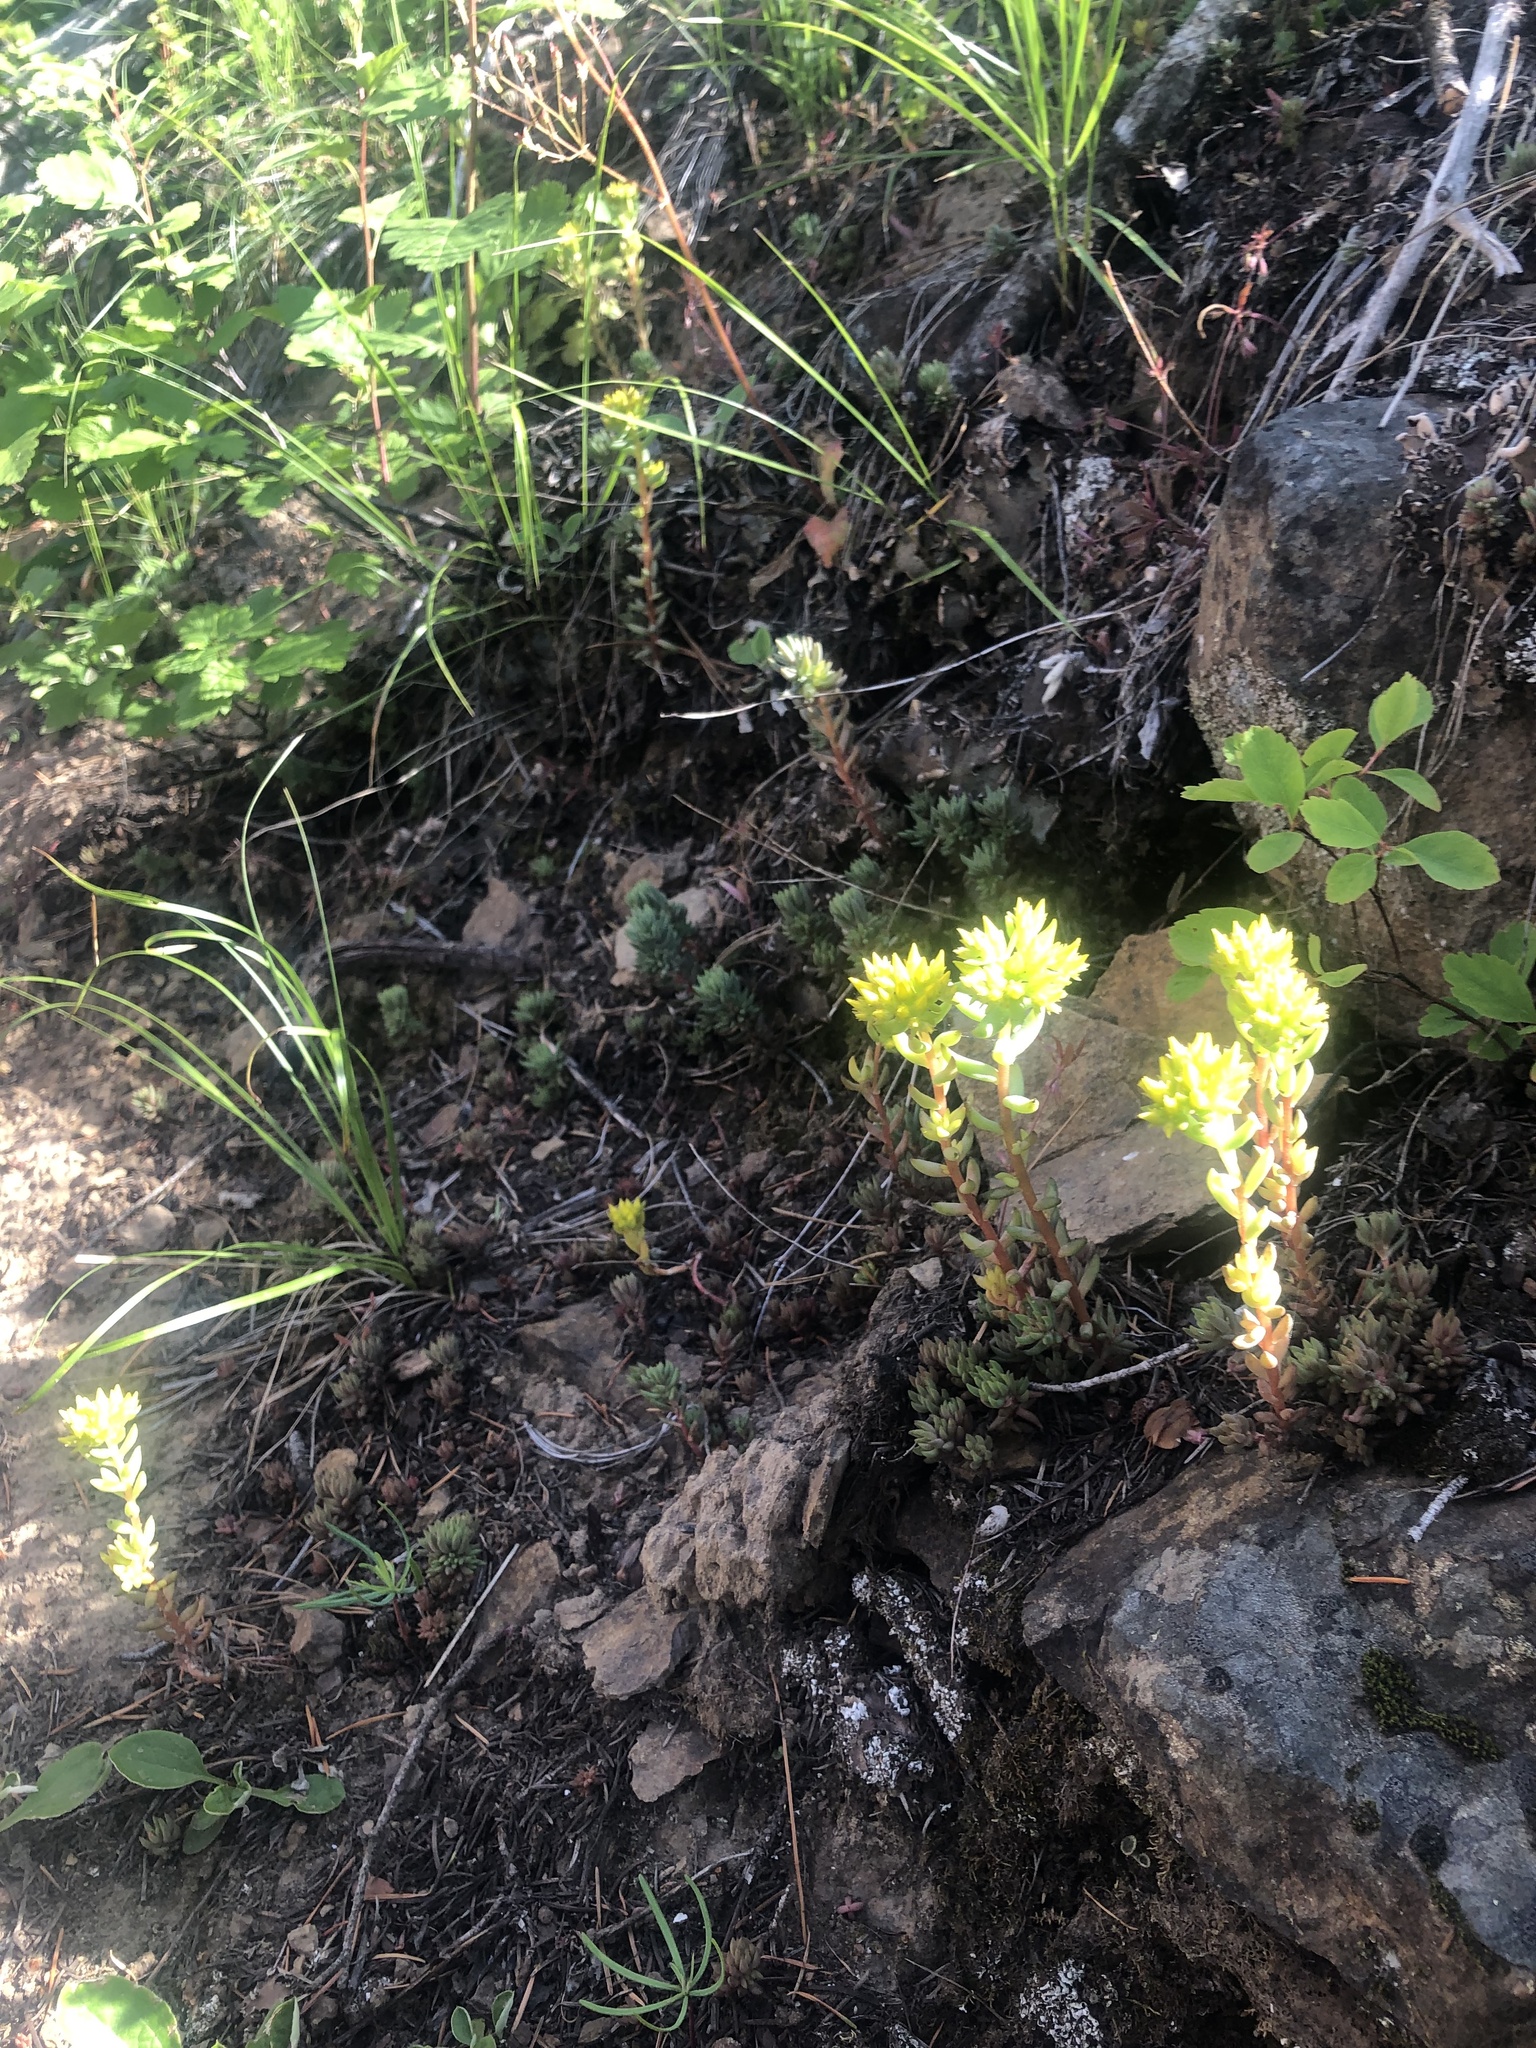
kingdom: Plantae
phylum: Tracheophyta
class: Magnoliopsida
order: Saxifragales
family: Crassulaceae
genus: Sedum
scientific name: Sedum stenopetalum
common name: Narrow-petaled stonecrop
